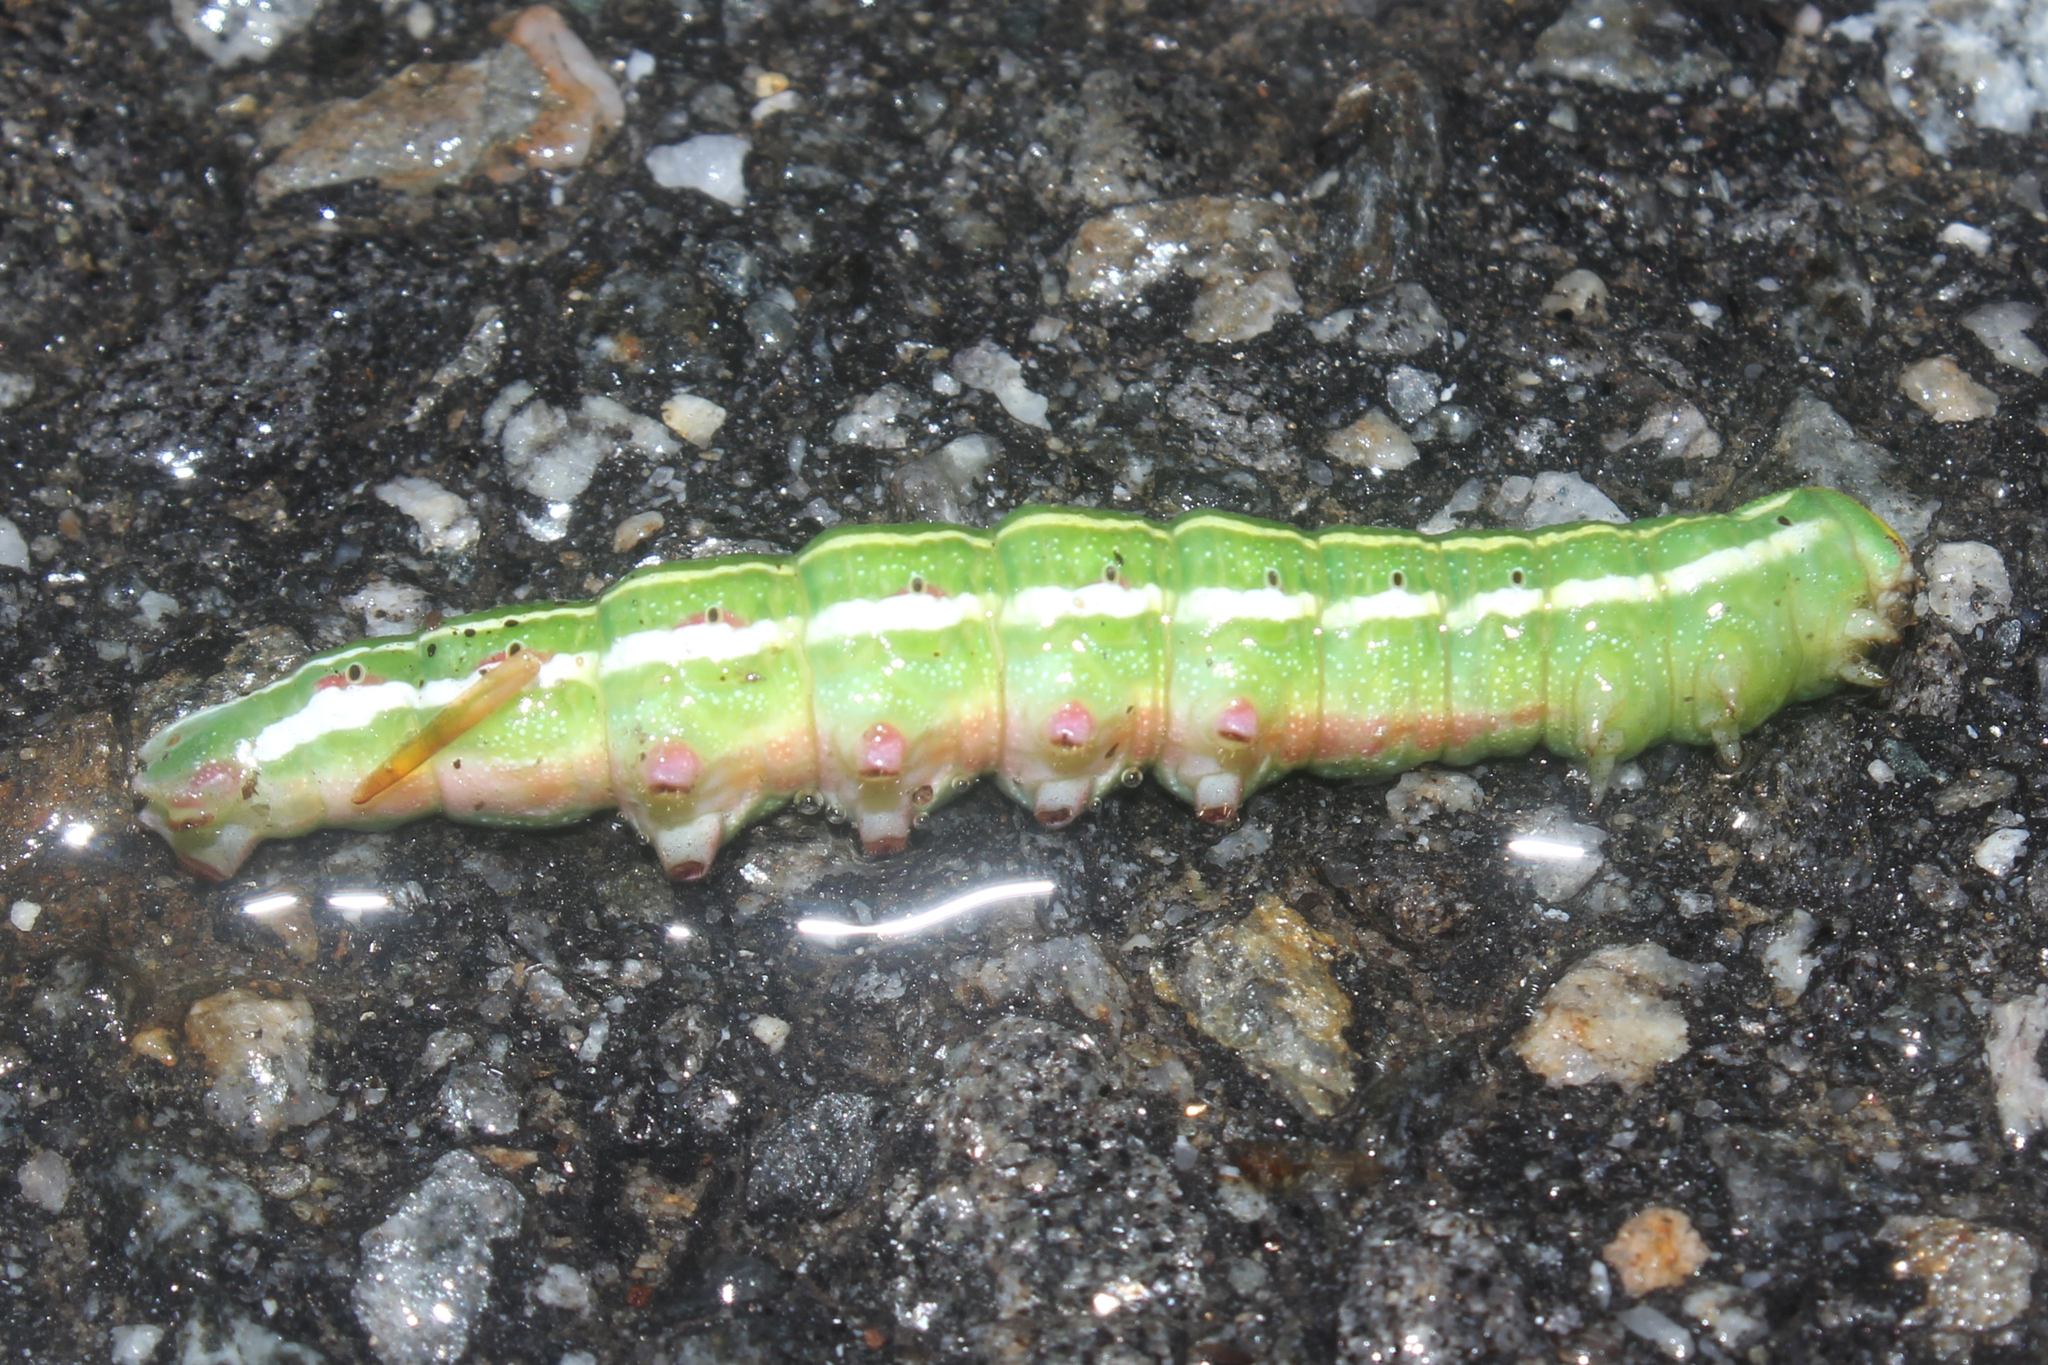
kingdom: Animalia
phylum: Arthropoda
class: Insecta
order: Lepidoptera
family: Sphingidae
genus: Lapara
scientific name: Lapara bombycoides
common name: Northern pine sphinx
